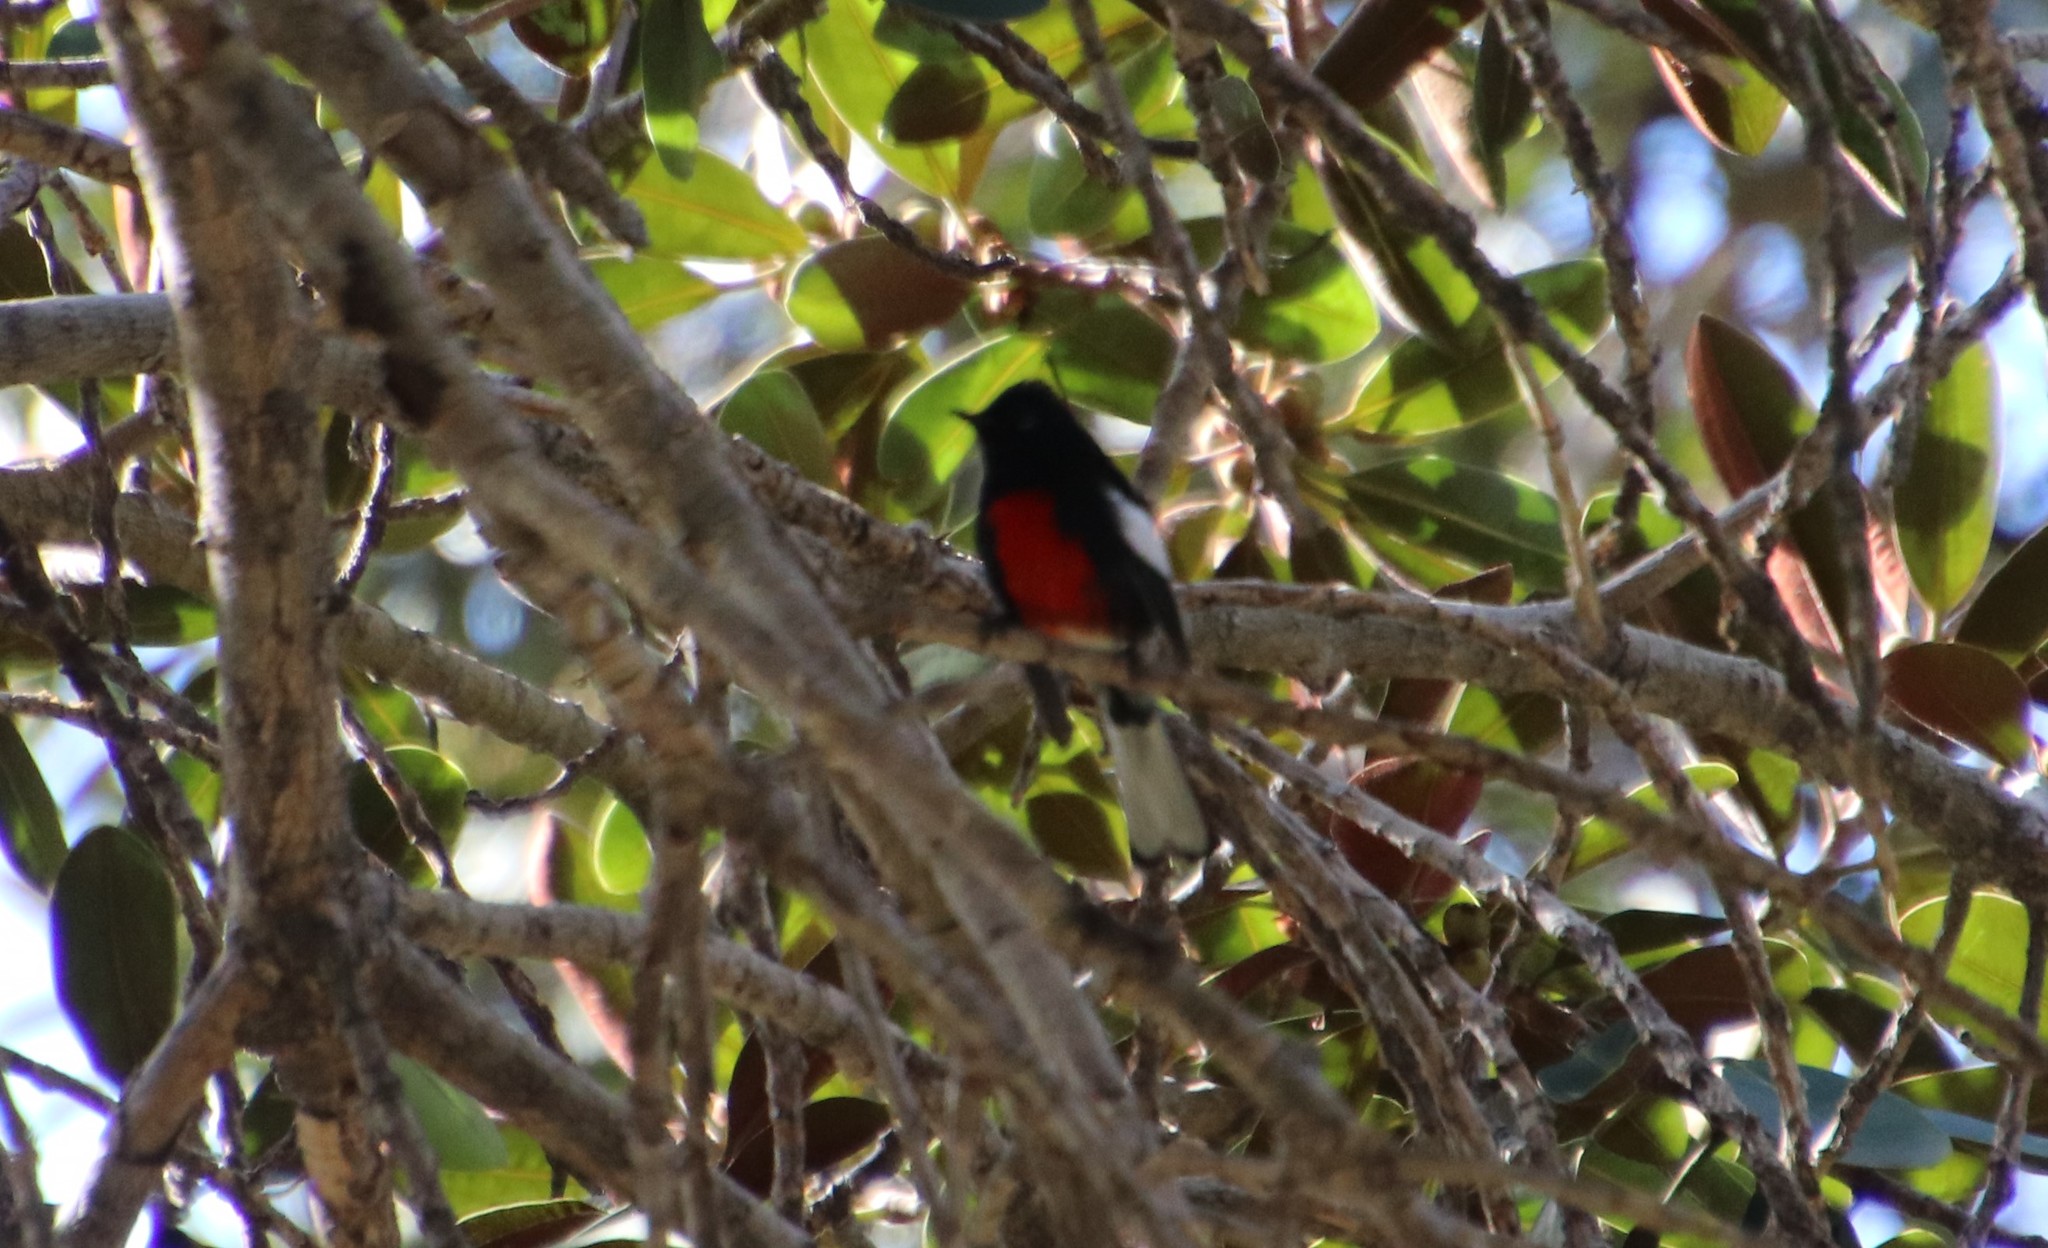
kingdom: Animalia
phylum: Chordata
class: Aves
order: Passeriformes
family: Parulidae
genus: Myioborus
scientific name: Myioborus pictus
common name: Painted whitestart
